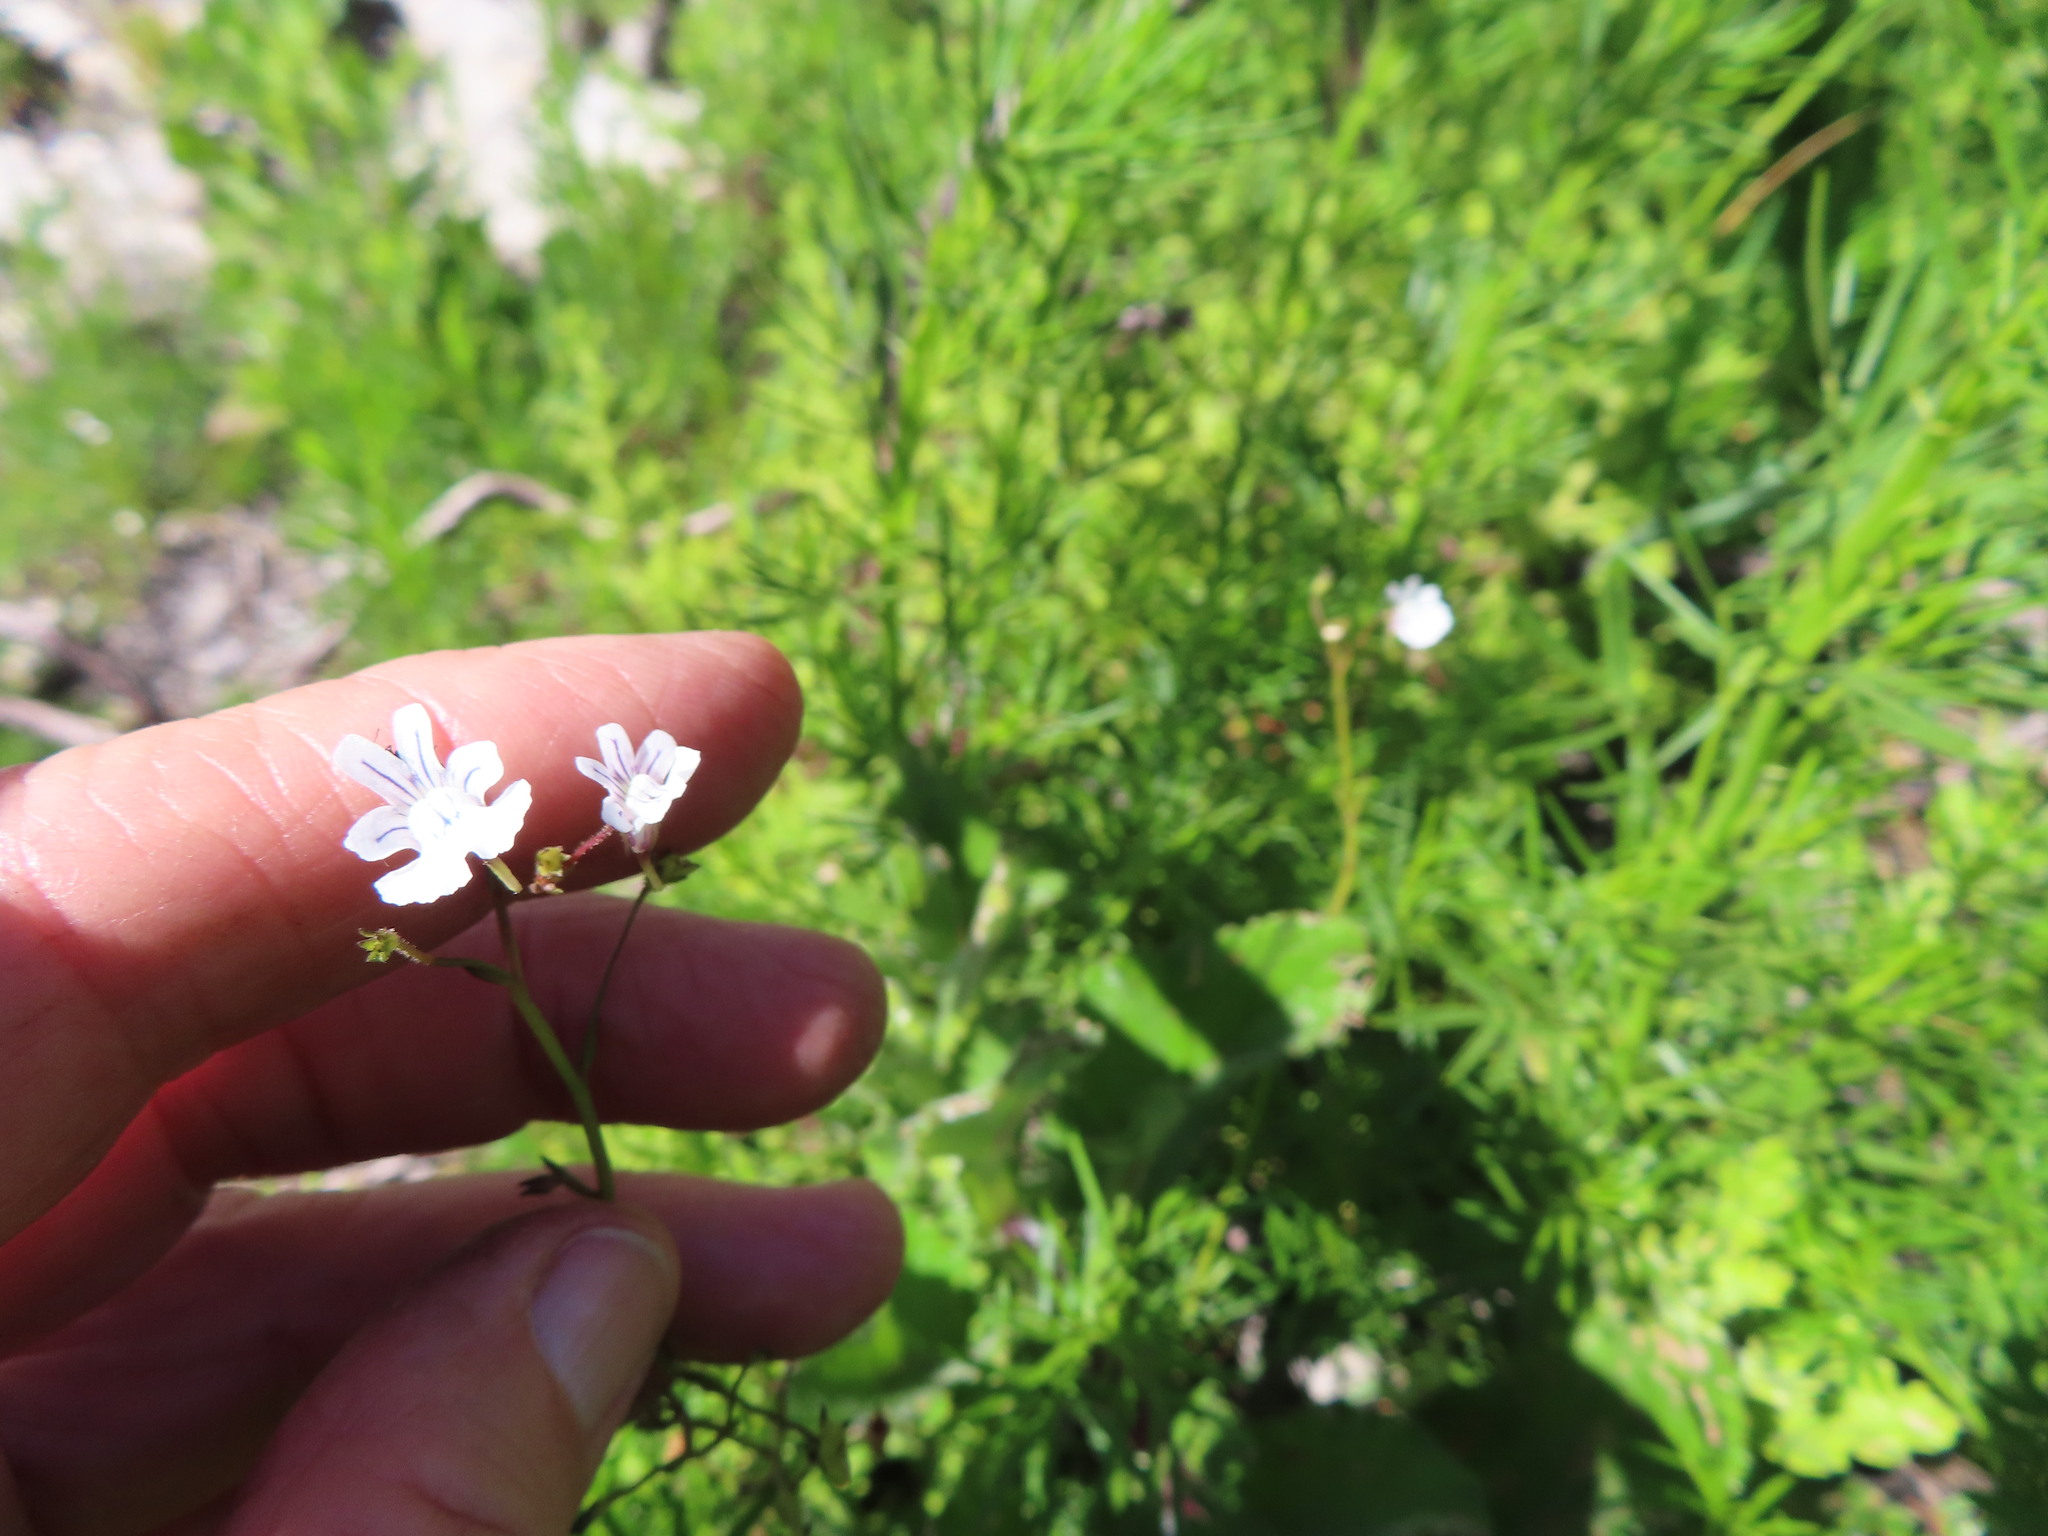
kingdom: Plantae
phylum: Tracheophyta
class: Magnoliopsida
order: Lamiales
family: Scrophulariaceae
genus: Nemesia
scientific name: Nemesia diffusa
